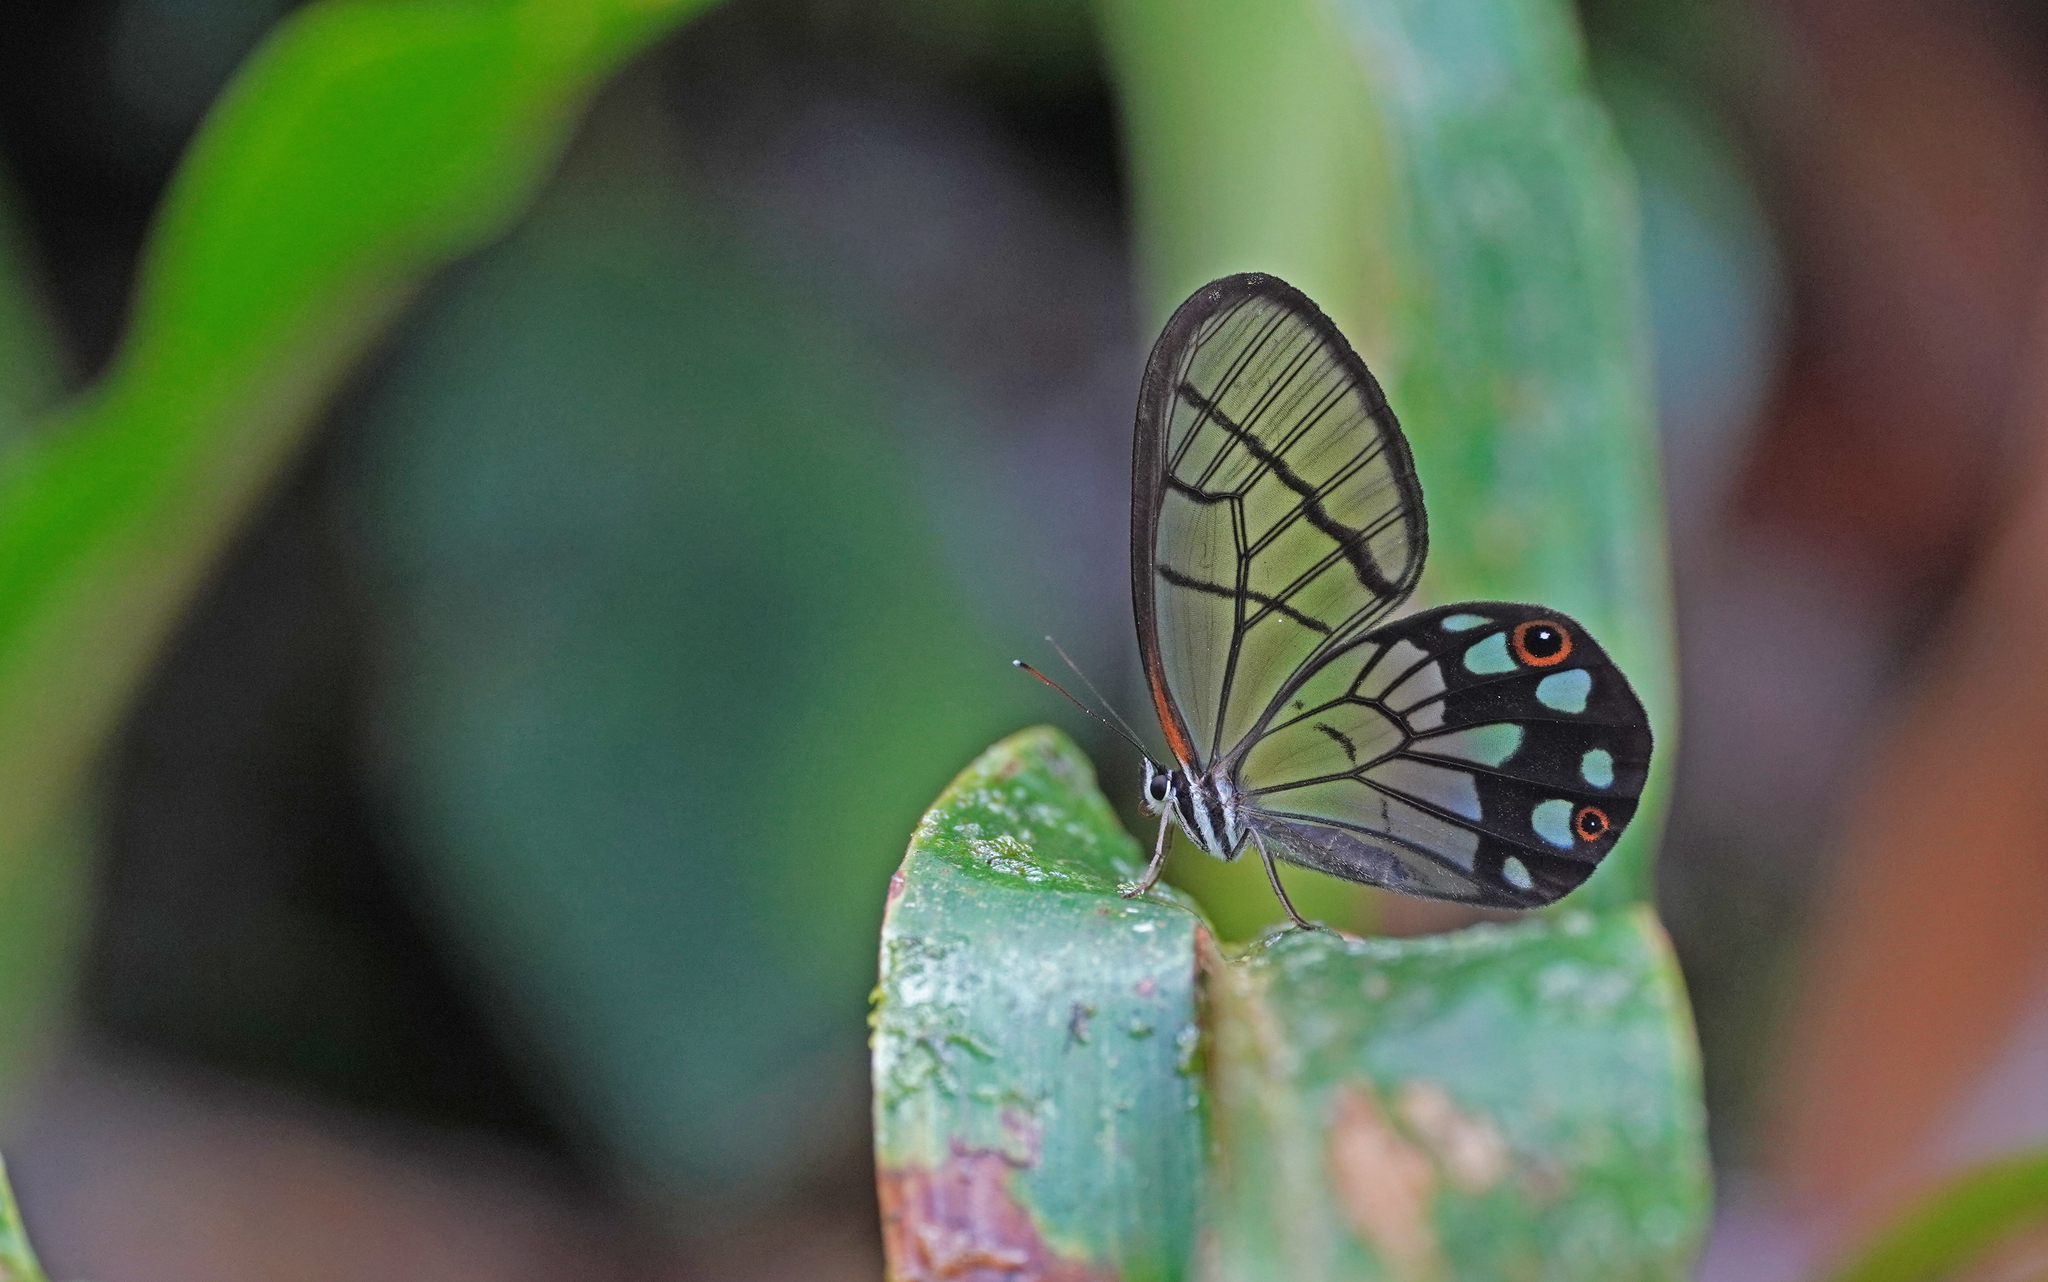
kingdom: Animalia
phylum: Arthropoda
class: Insecta
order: Lepidoptera
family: Nymphalidae
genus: Pseudohaetera
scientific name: Pseudohaetera
